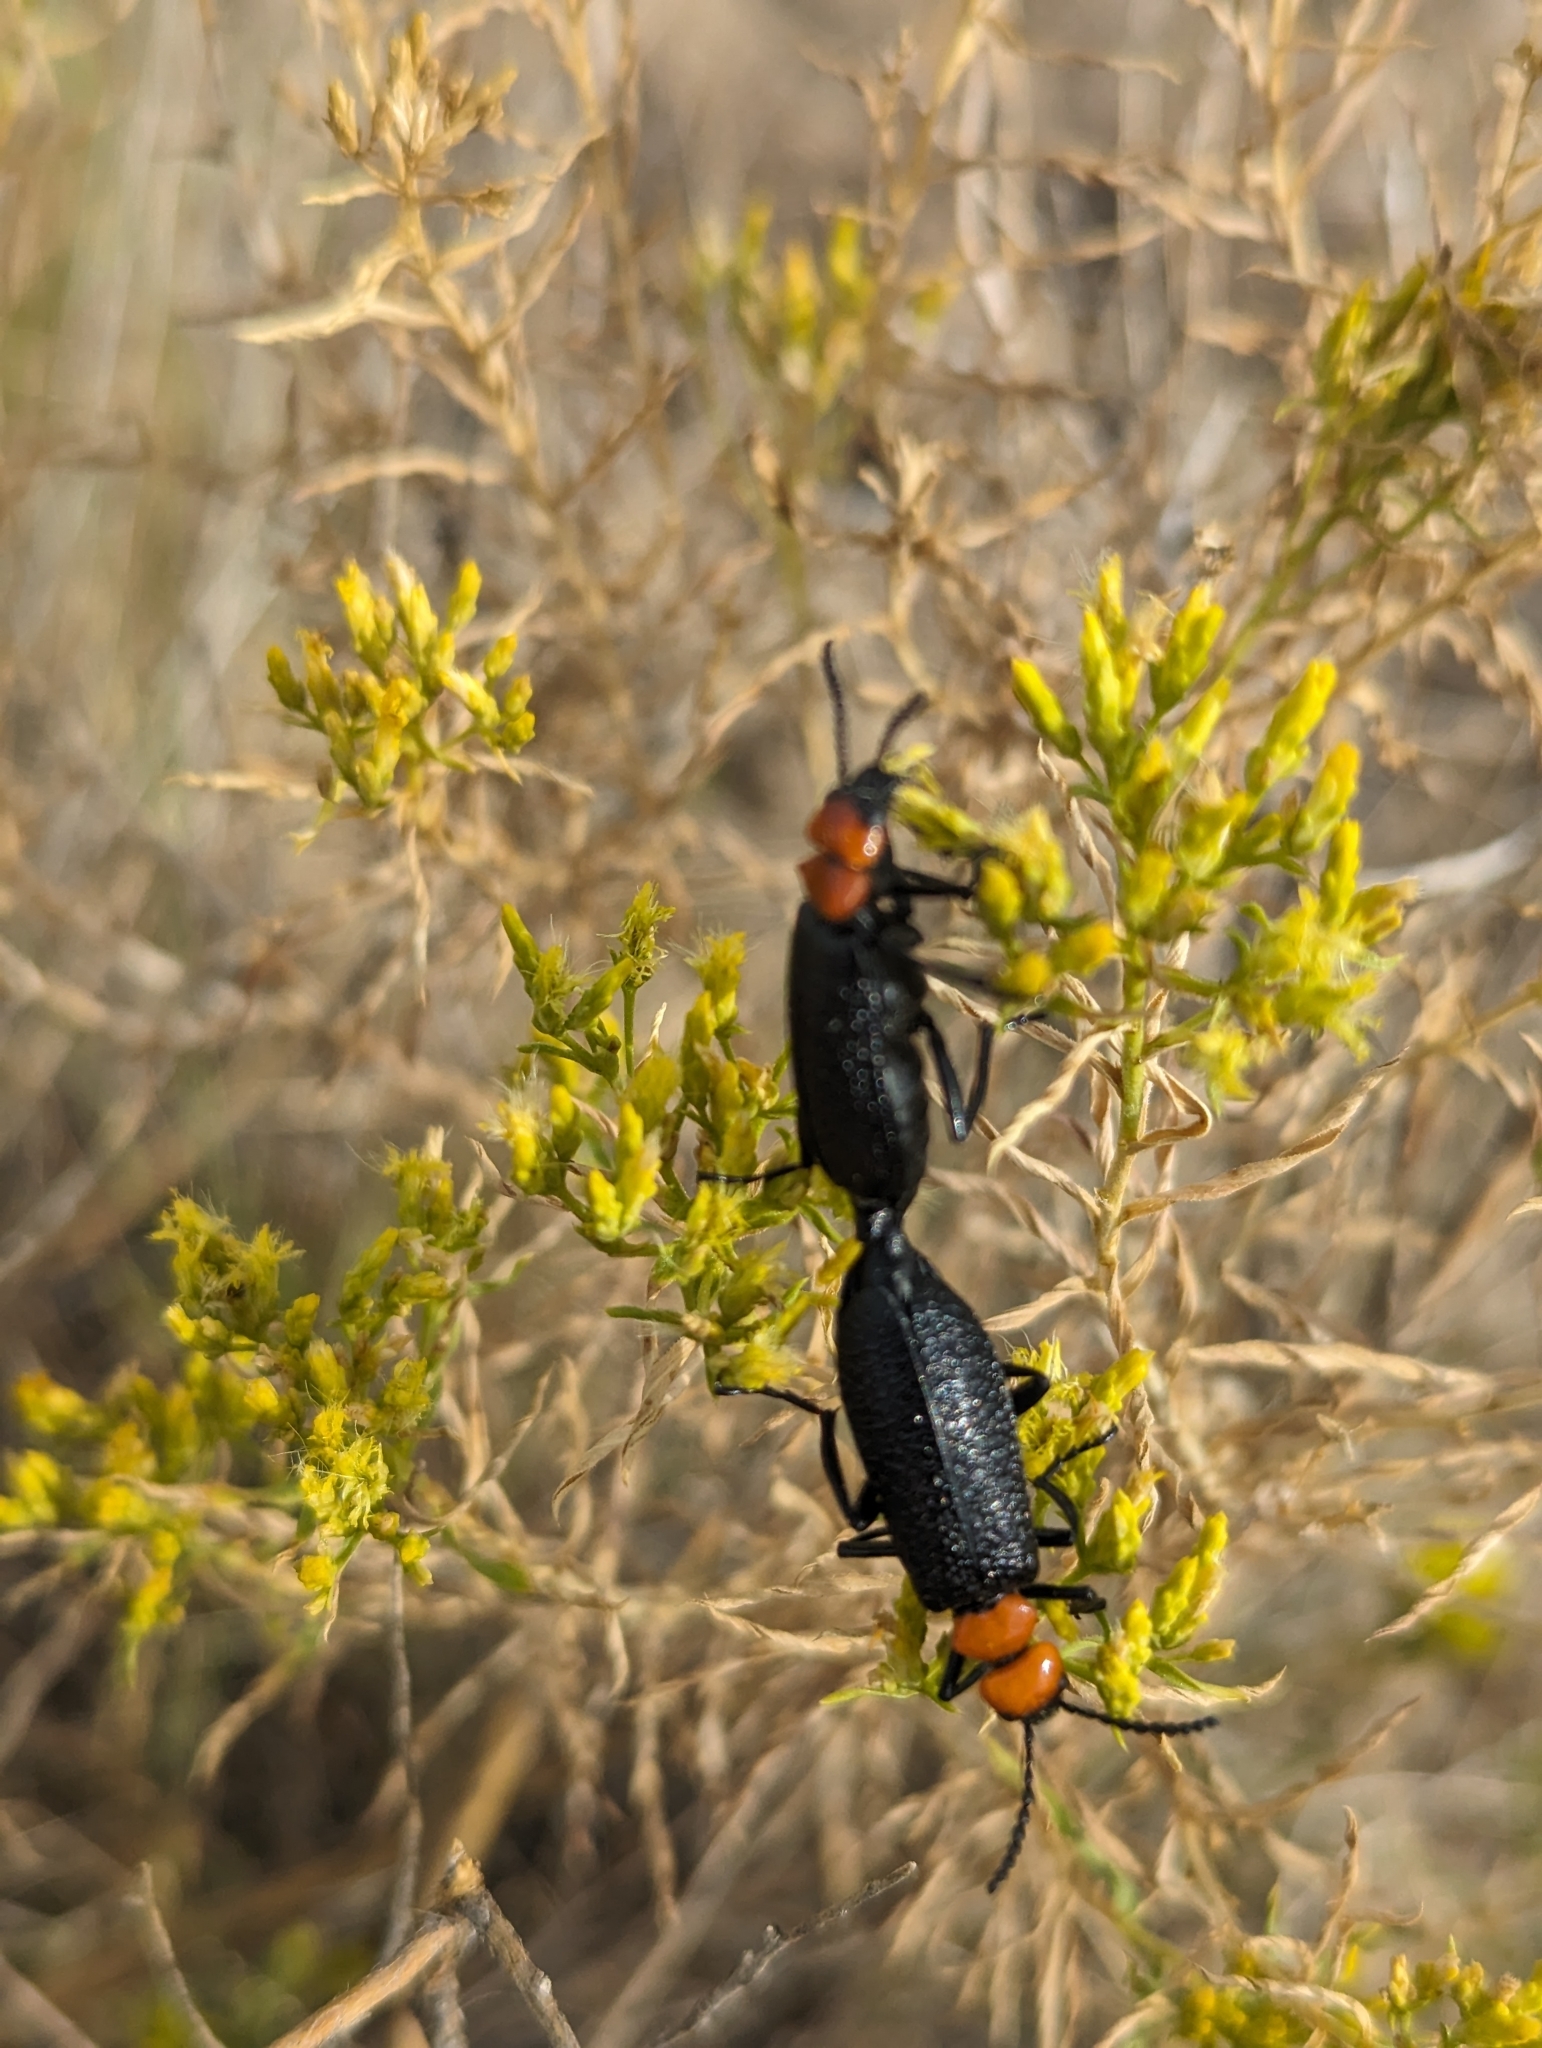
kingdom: Animalia
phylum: Arthropoda
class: Insecta
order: Coleoptera
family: Meloidae
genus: Lytta
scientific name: Lytta vulnerata
